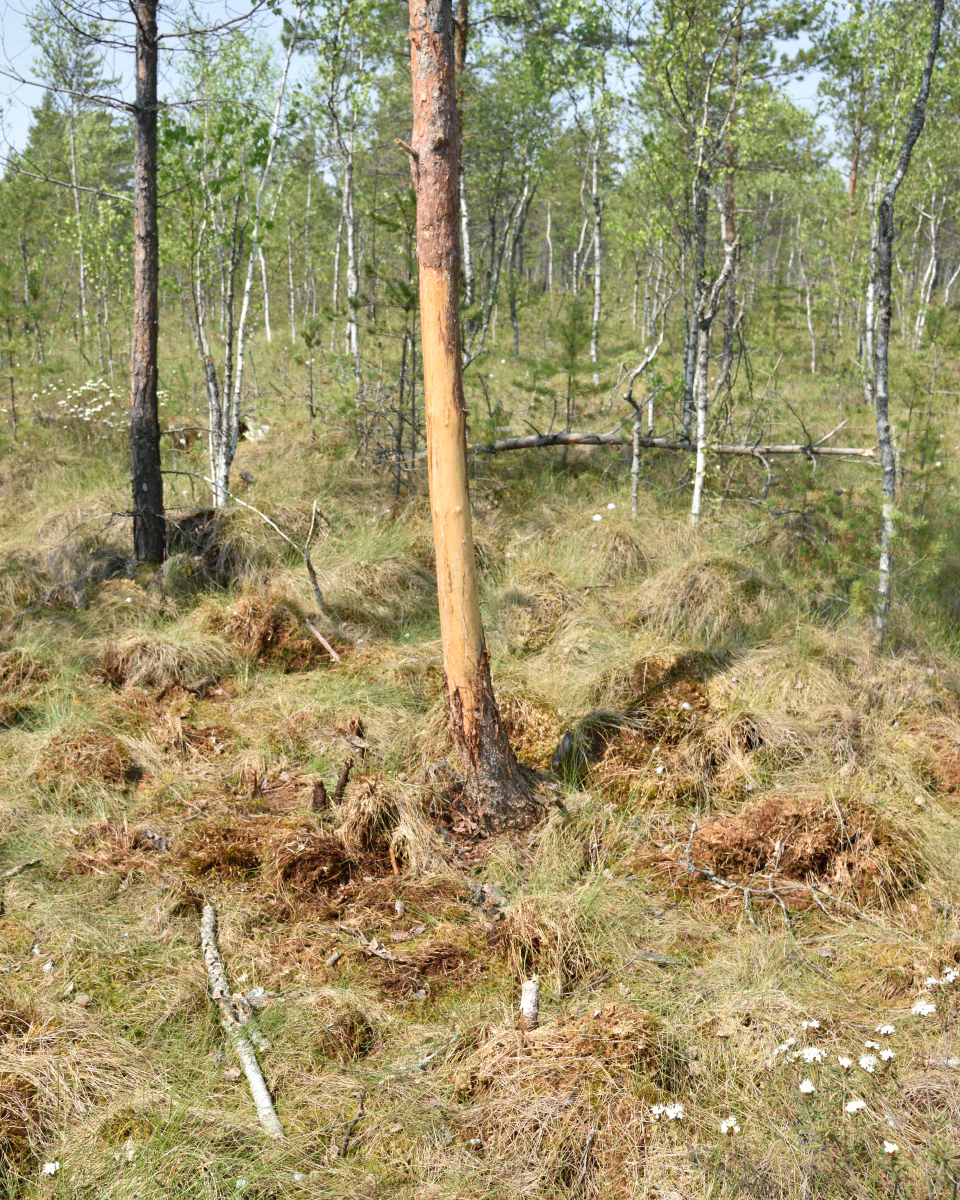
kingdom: Animalia
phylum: Chordata
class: Mammalia
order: Carnivora
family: Ursidae
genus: Ursus
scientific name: Ursus arctos
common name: Brown bear
